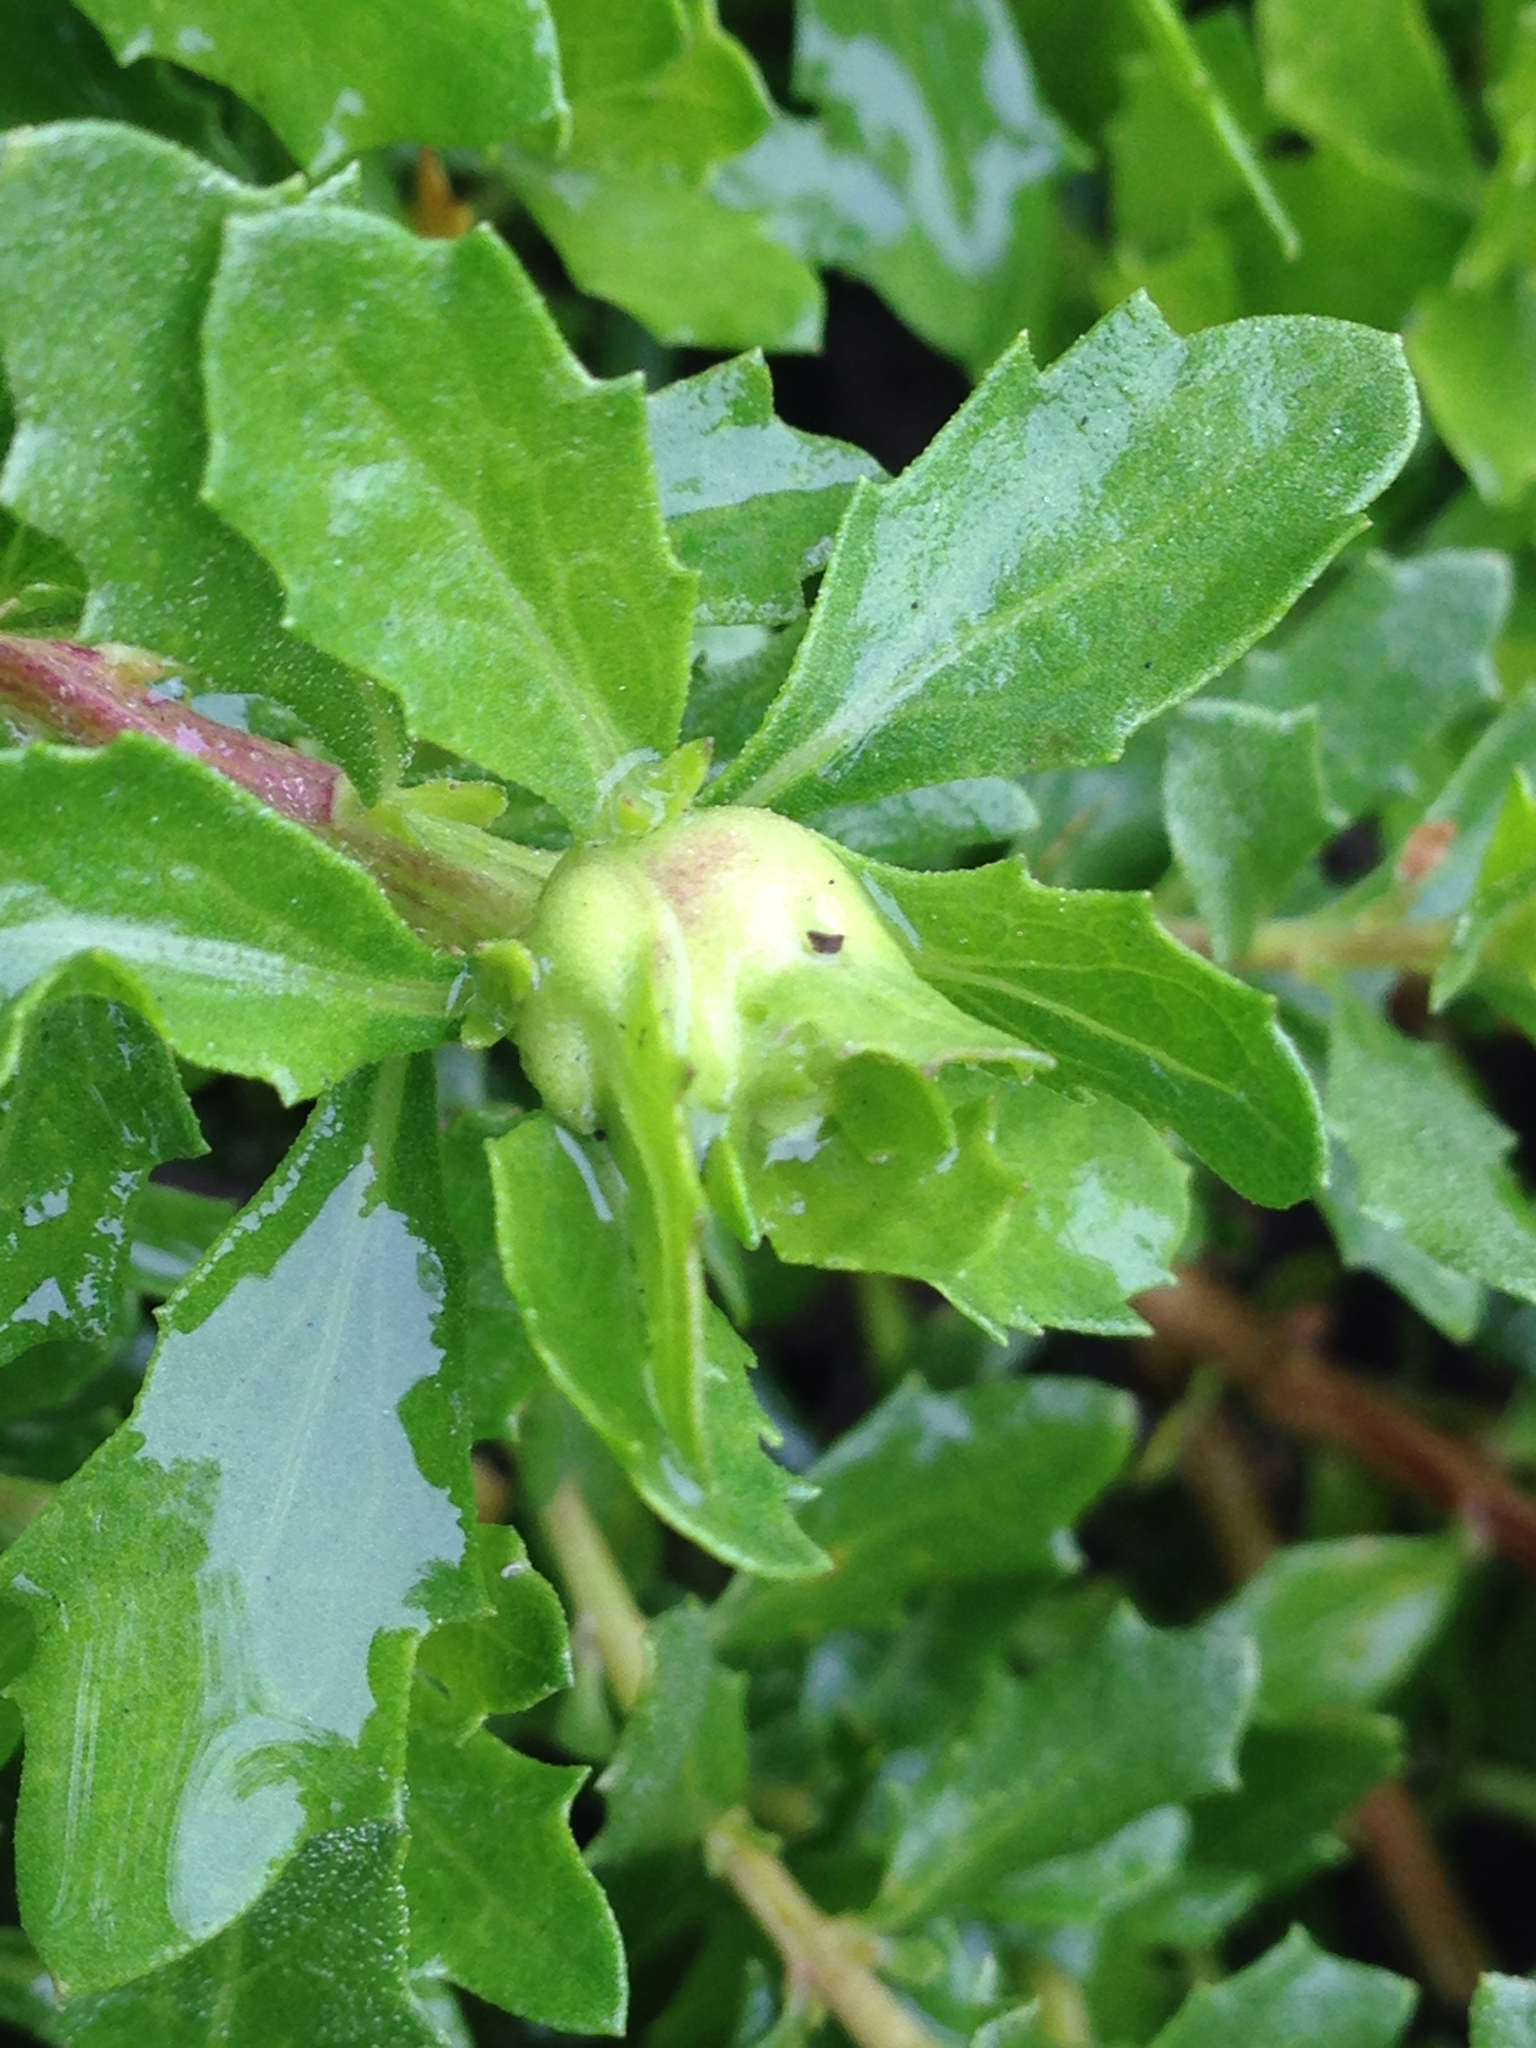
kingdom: Animalia
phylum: Arthropoda
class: Insecta
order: Diptera
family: Cecidomyiidae
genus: Rhopalomyia
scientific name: Rhopalomyia californica
